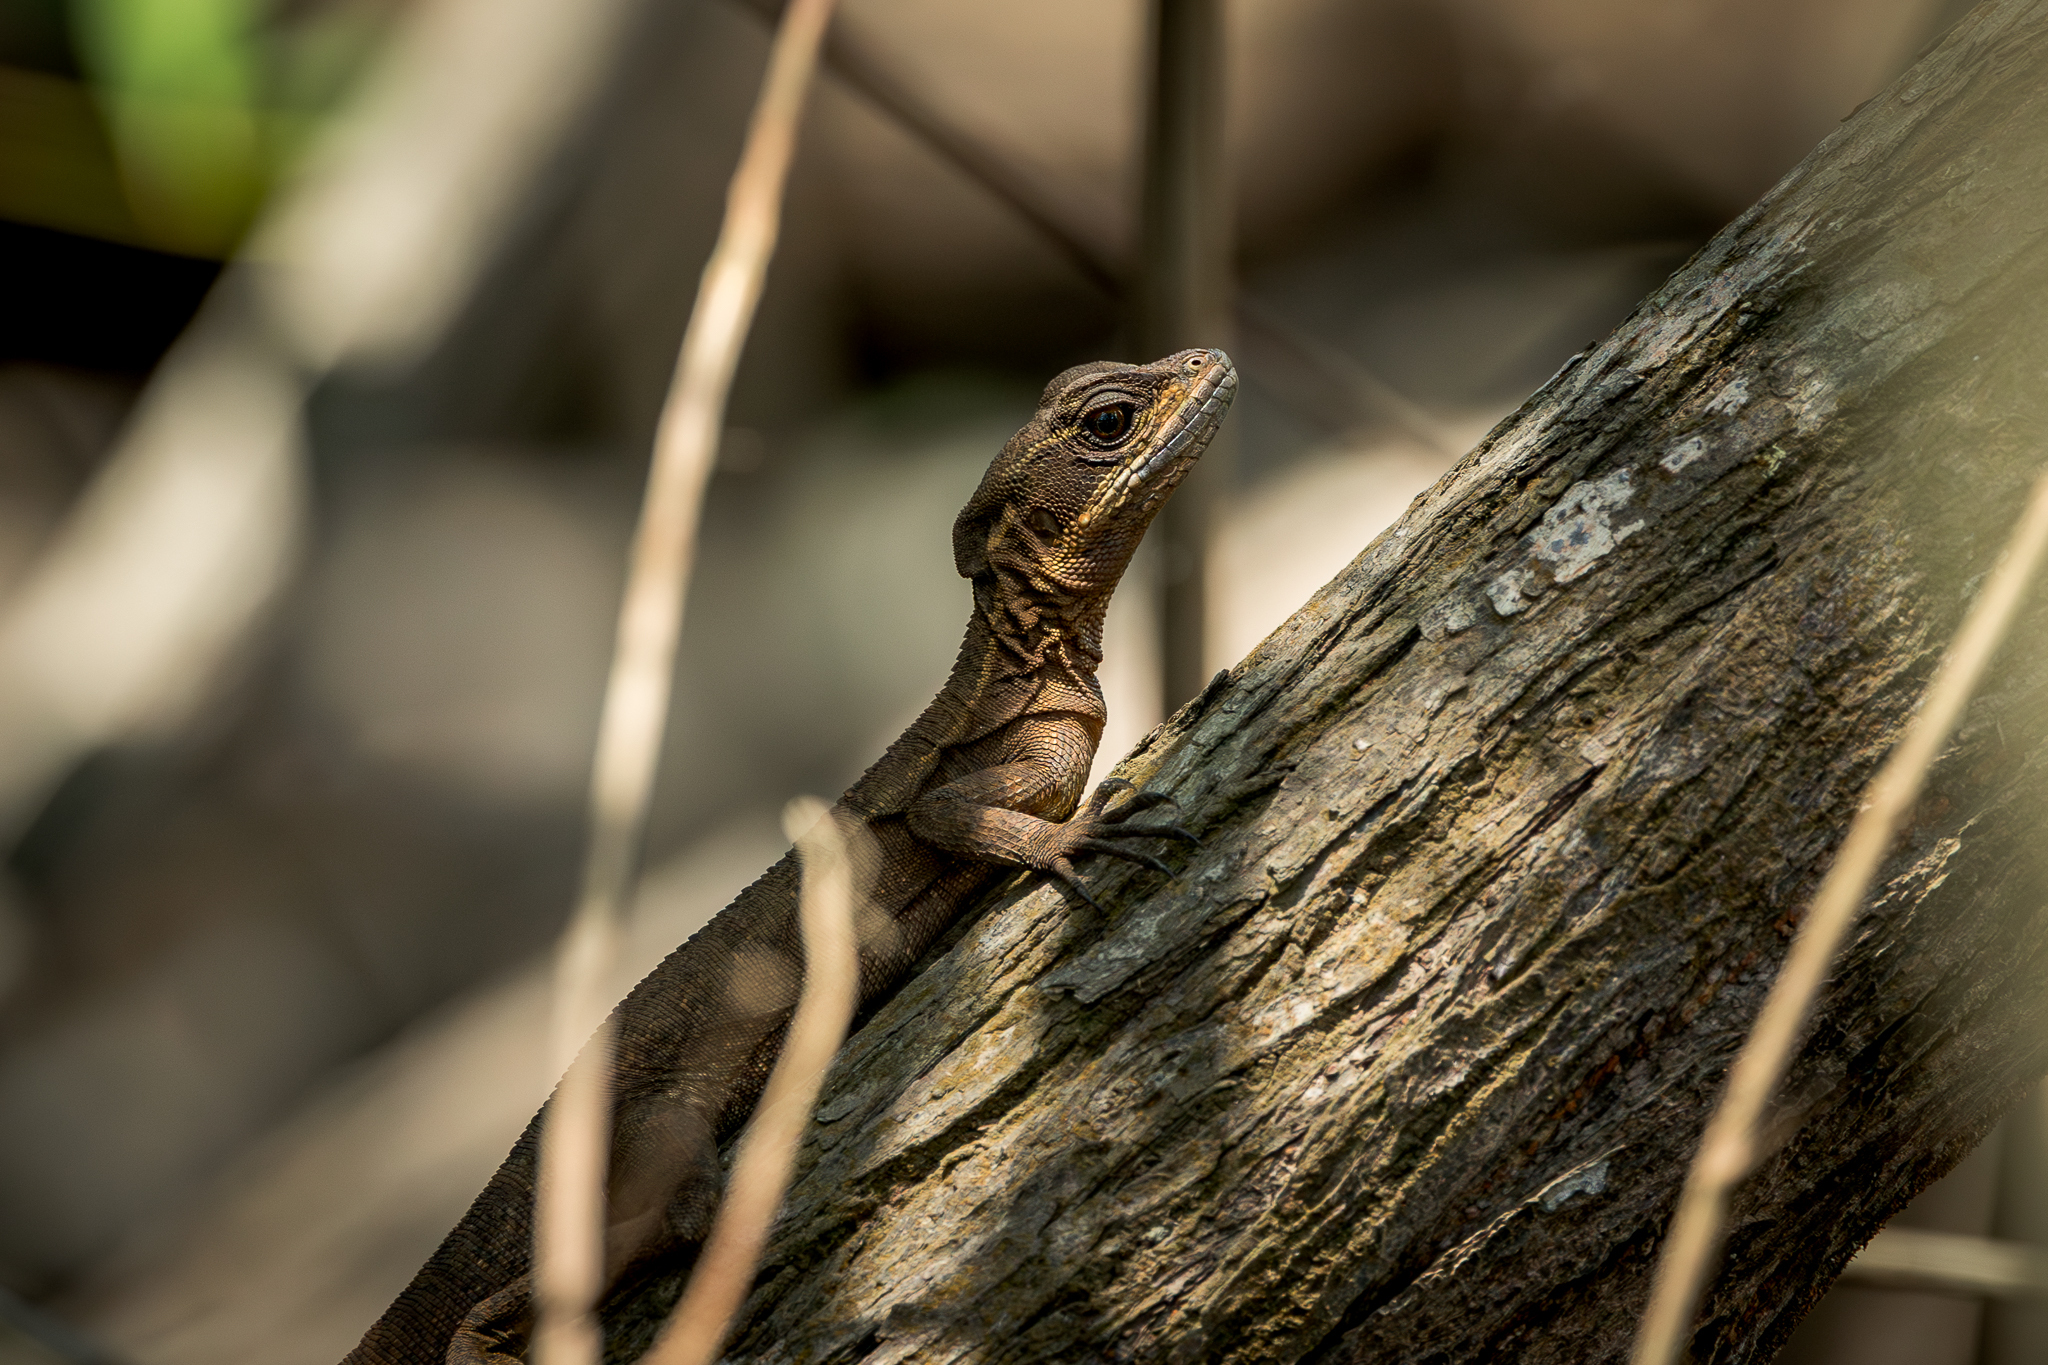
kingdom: Animalia
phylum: Chordata
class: Squamata
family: Corytophanidae
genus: Basiliscus
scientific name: Basiliscus basiliscus
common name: Common basilisk
